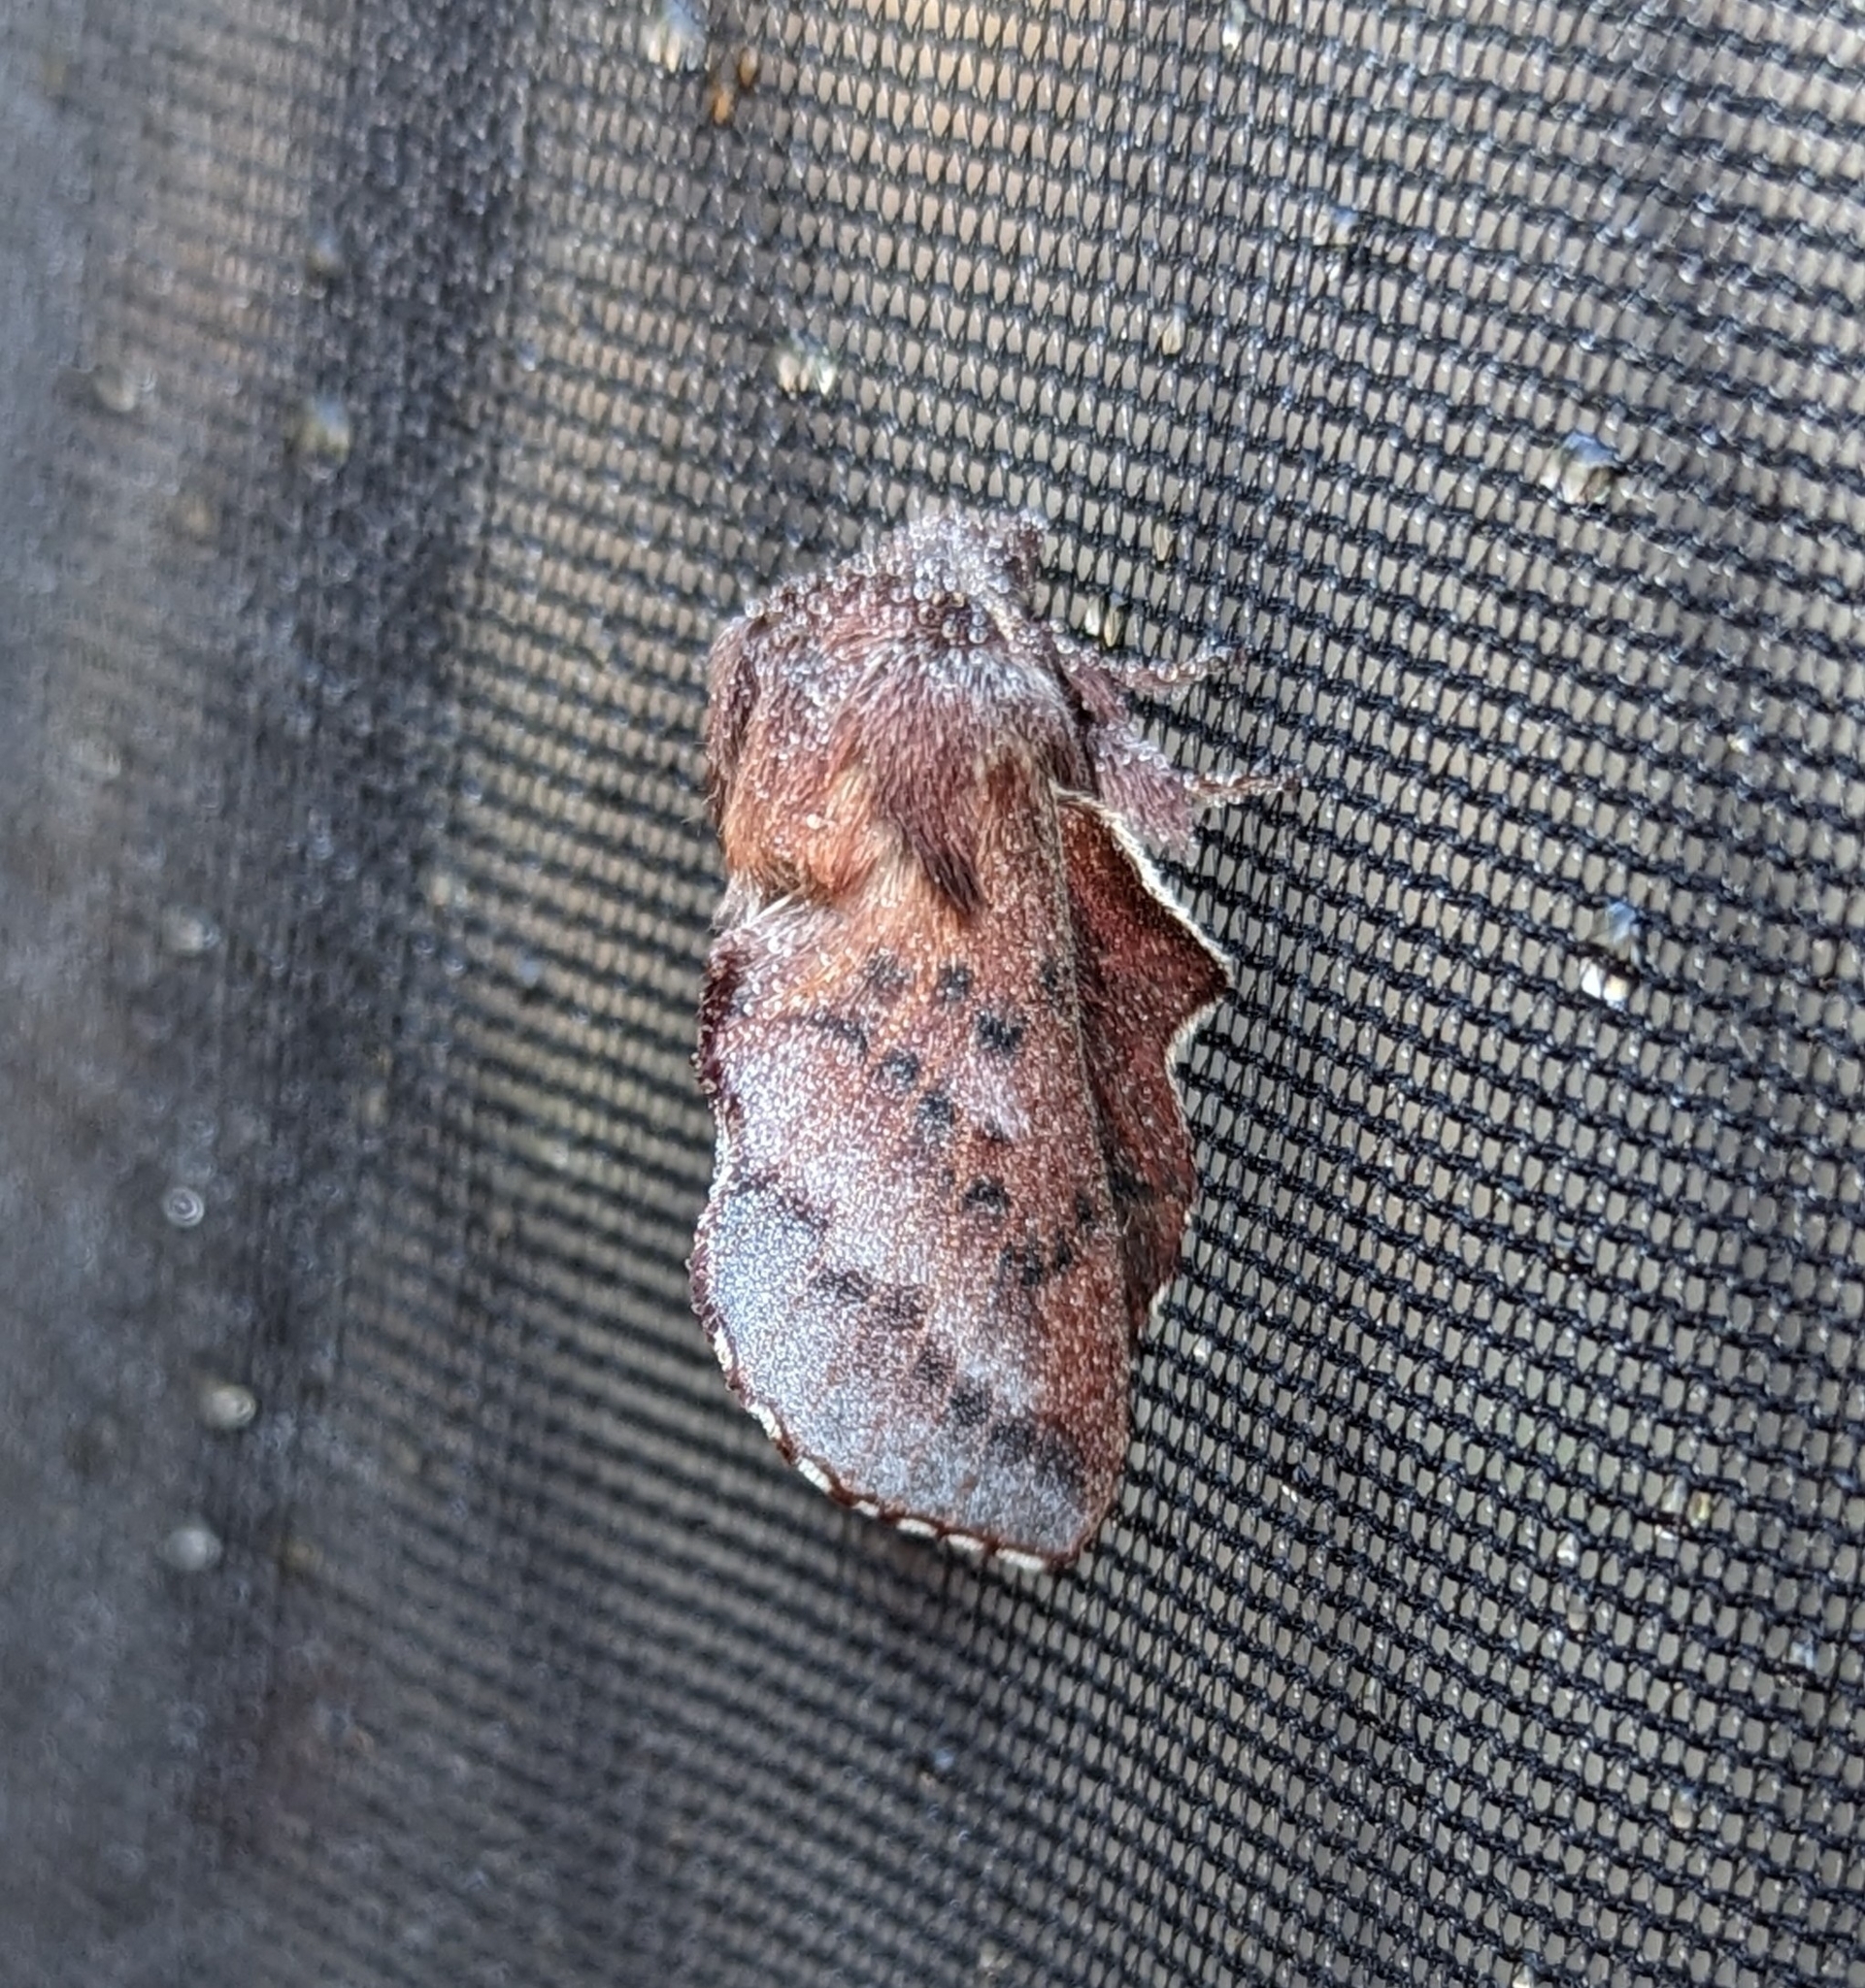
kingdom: Animalia
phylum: Arthropoda
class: Insecta
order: Lepidoptera
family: Lasiocampidae
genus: Phyllodesma
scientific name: Phyllodesma americana
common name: American lappet moth
